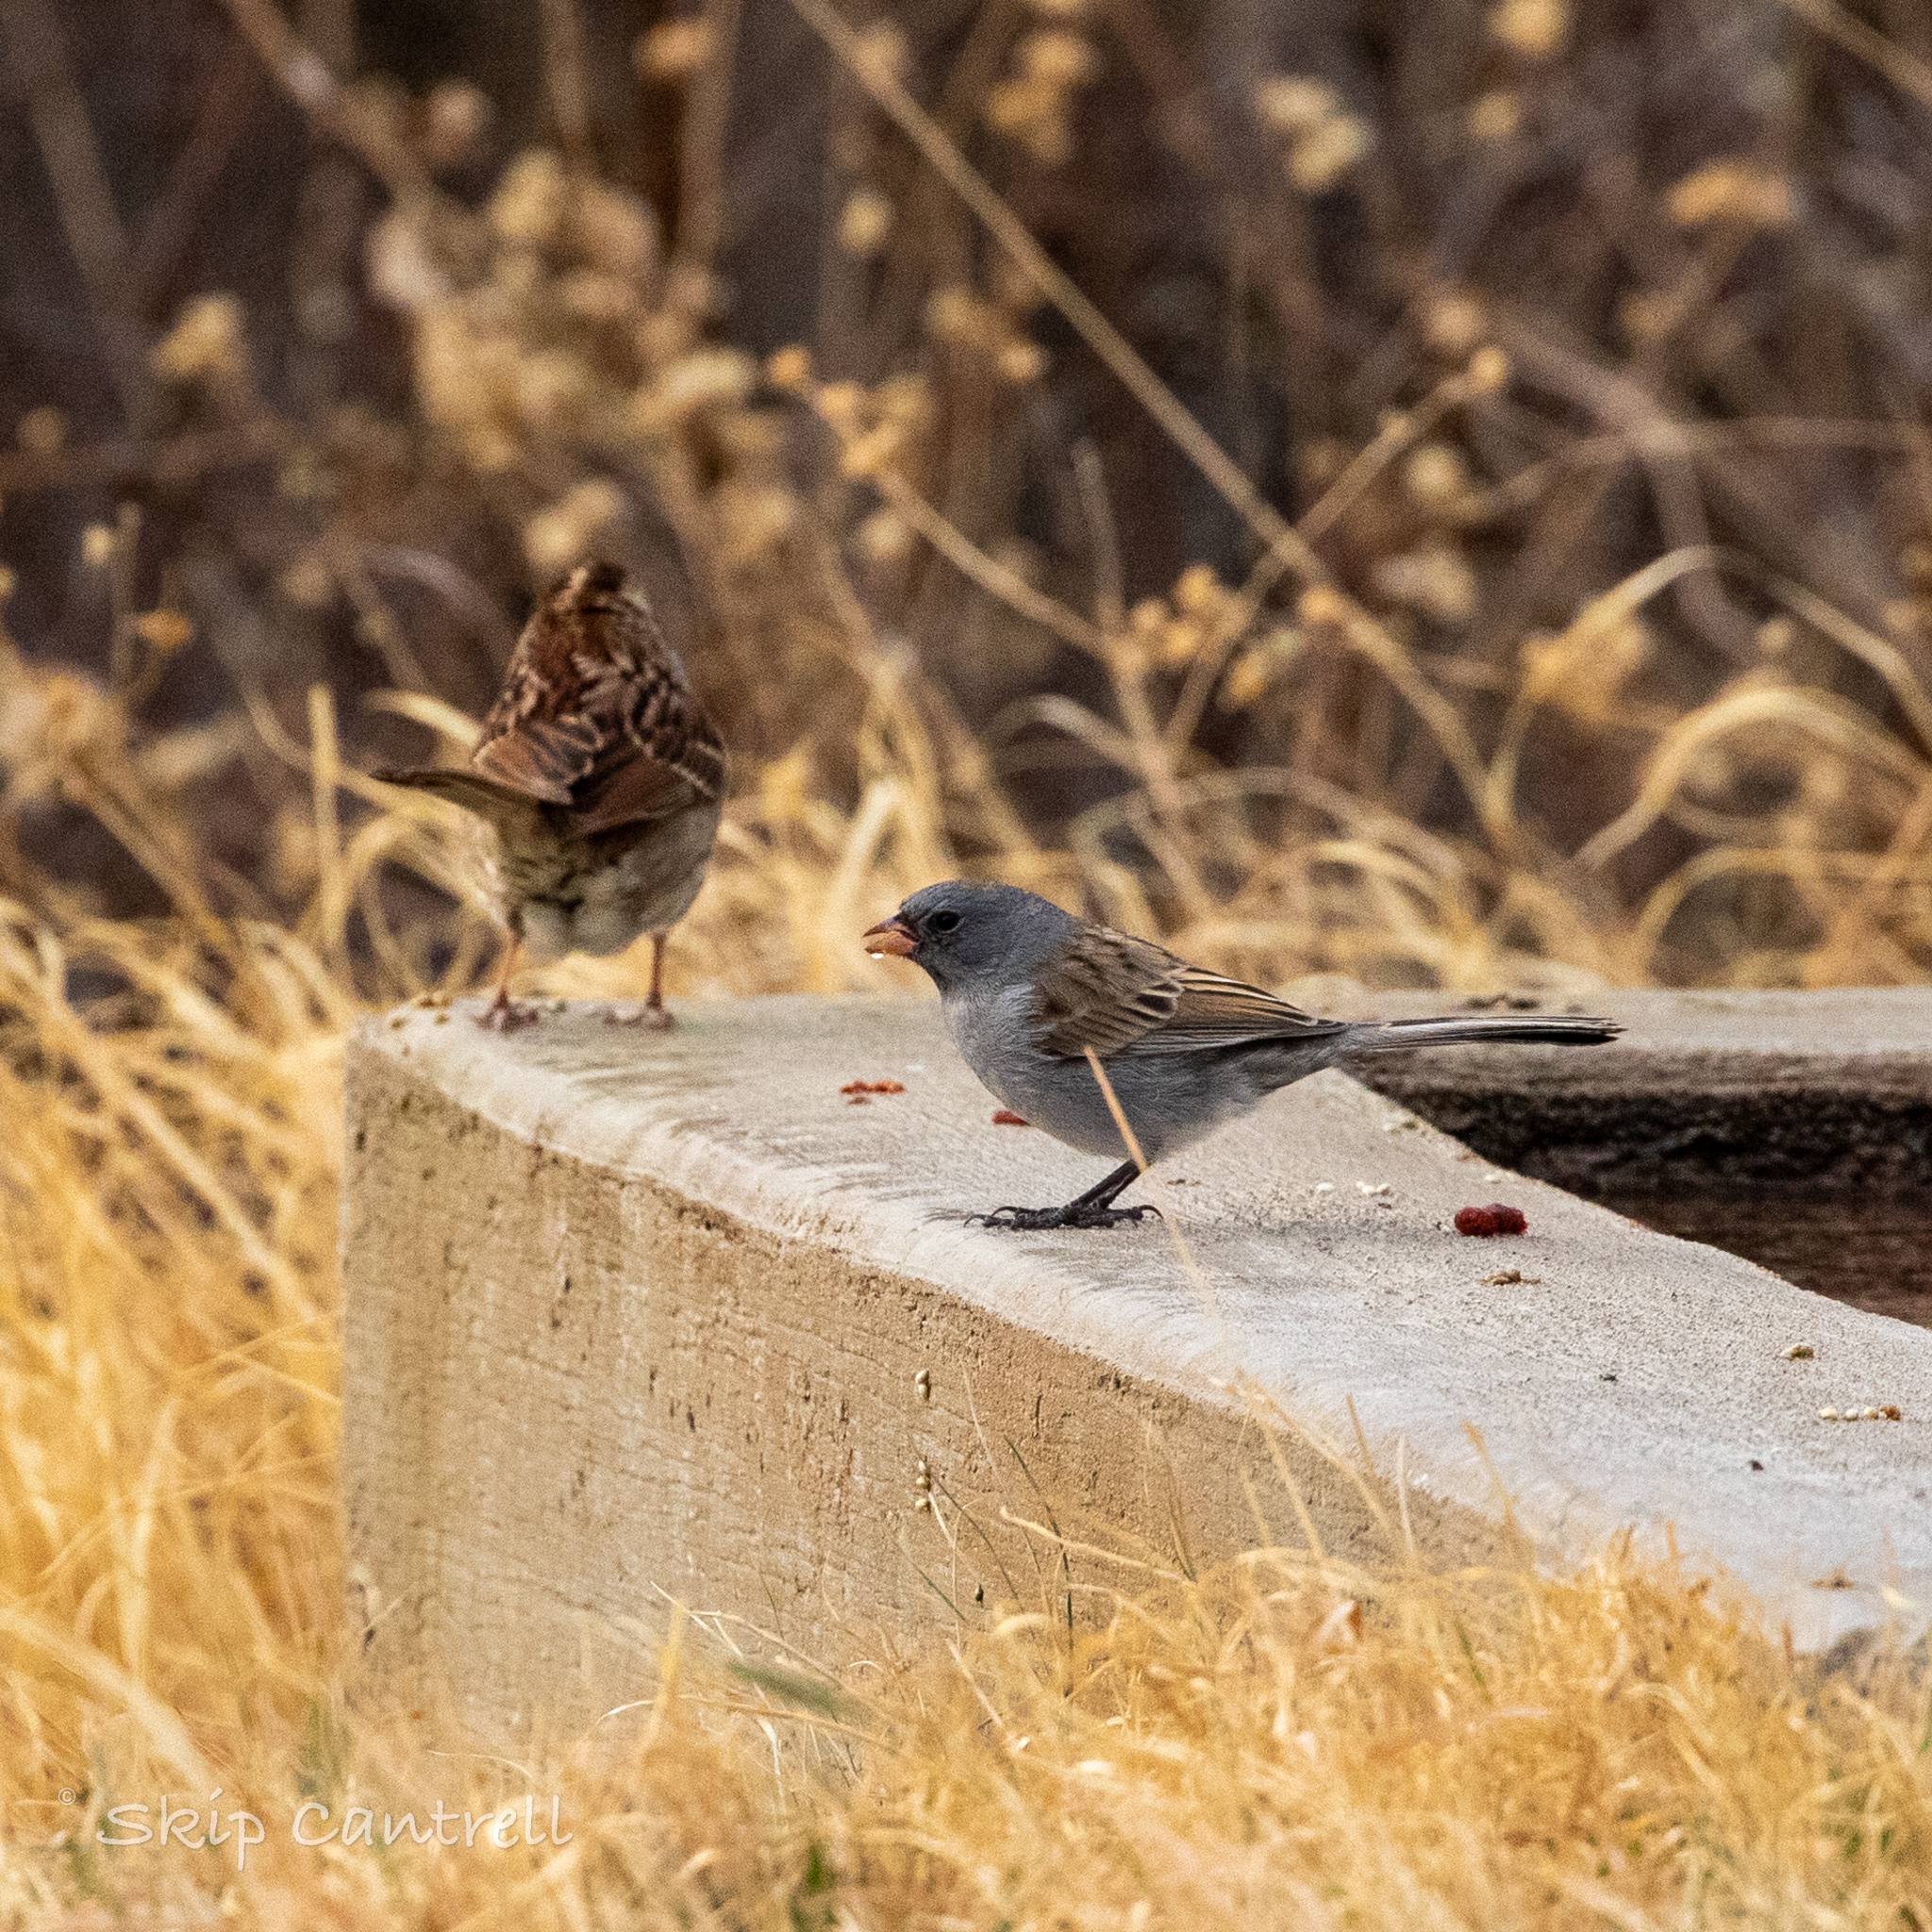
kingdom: Animalia
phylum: Chordata
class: Aves
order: Passeriformes
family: Passerellidae
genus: Spizella
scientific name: Spizella atrogularis
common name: Black-chinned sparrow
